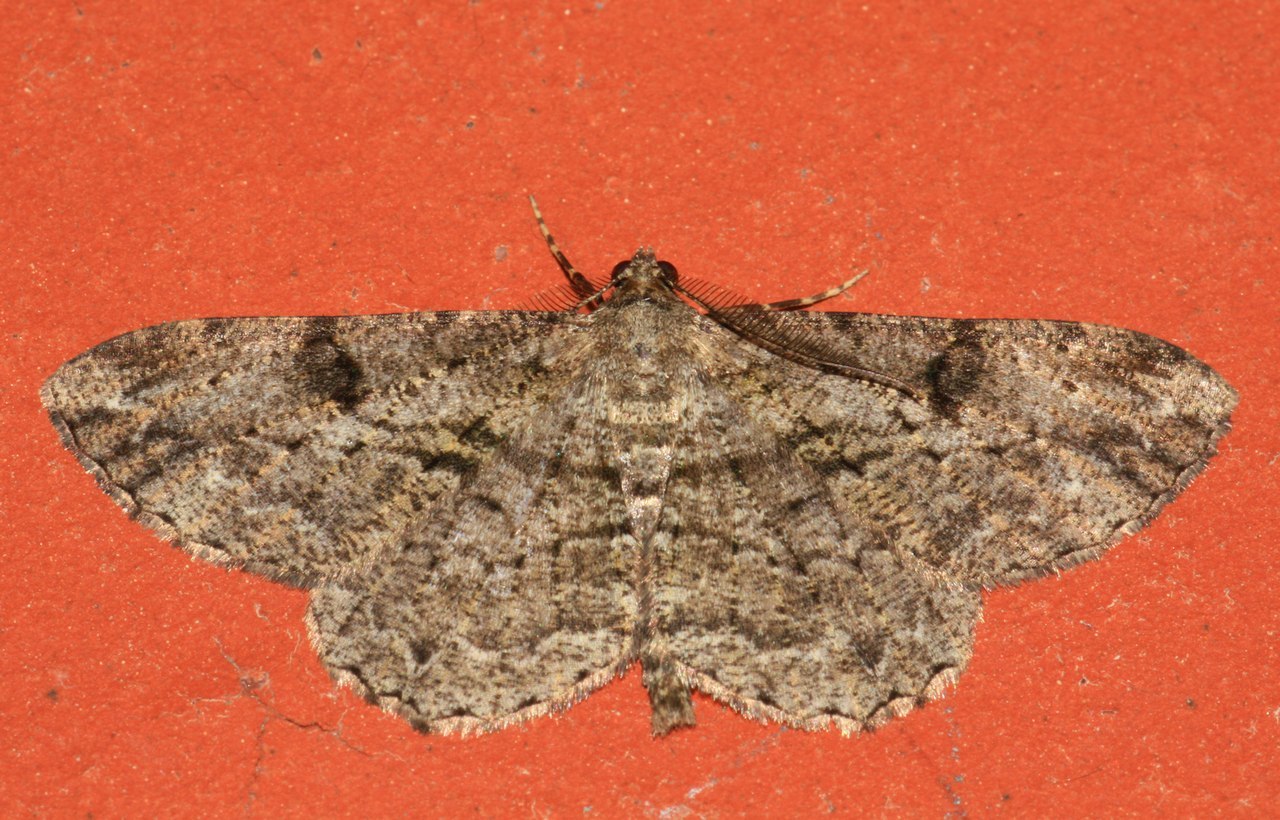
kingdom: Animalia
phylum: Arthropoda
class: Insecta
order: Lepidoptera
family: Geometridae
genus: Peribatodes
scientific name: Peribatodes rhomboidaria
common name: Willow beauty
